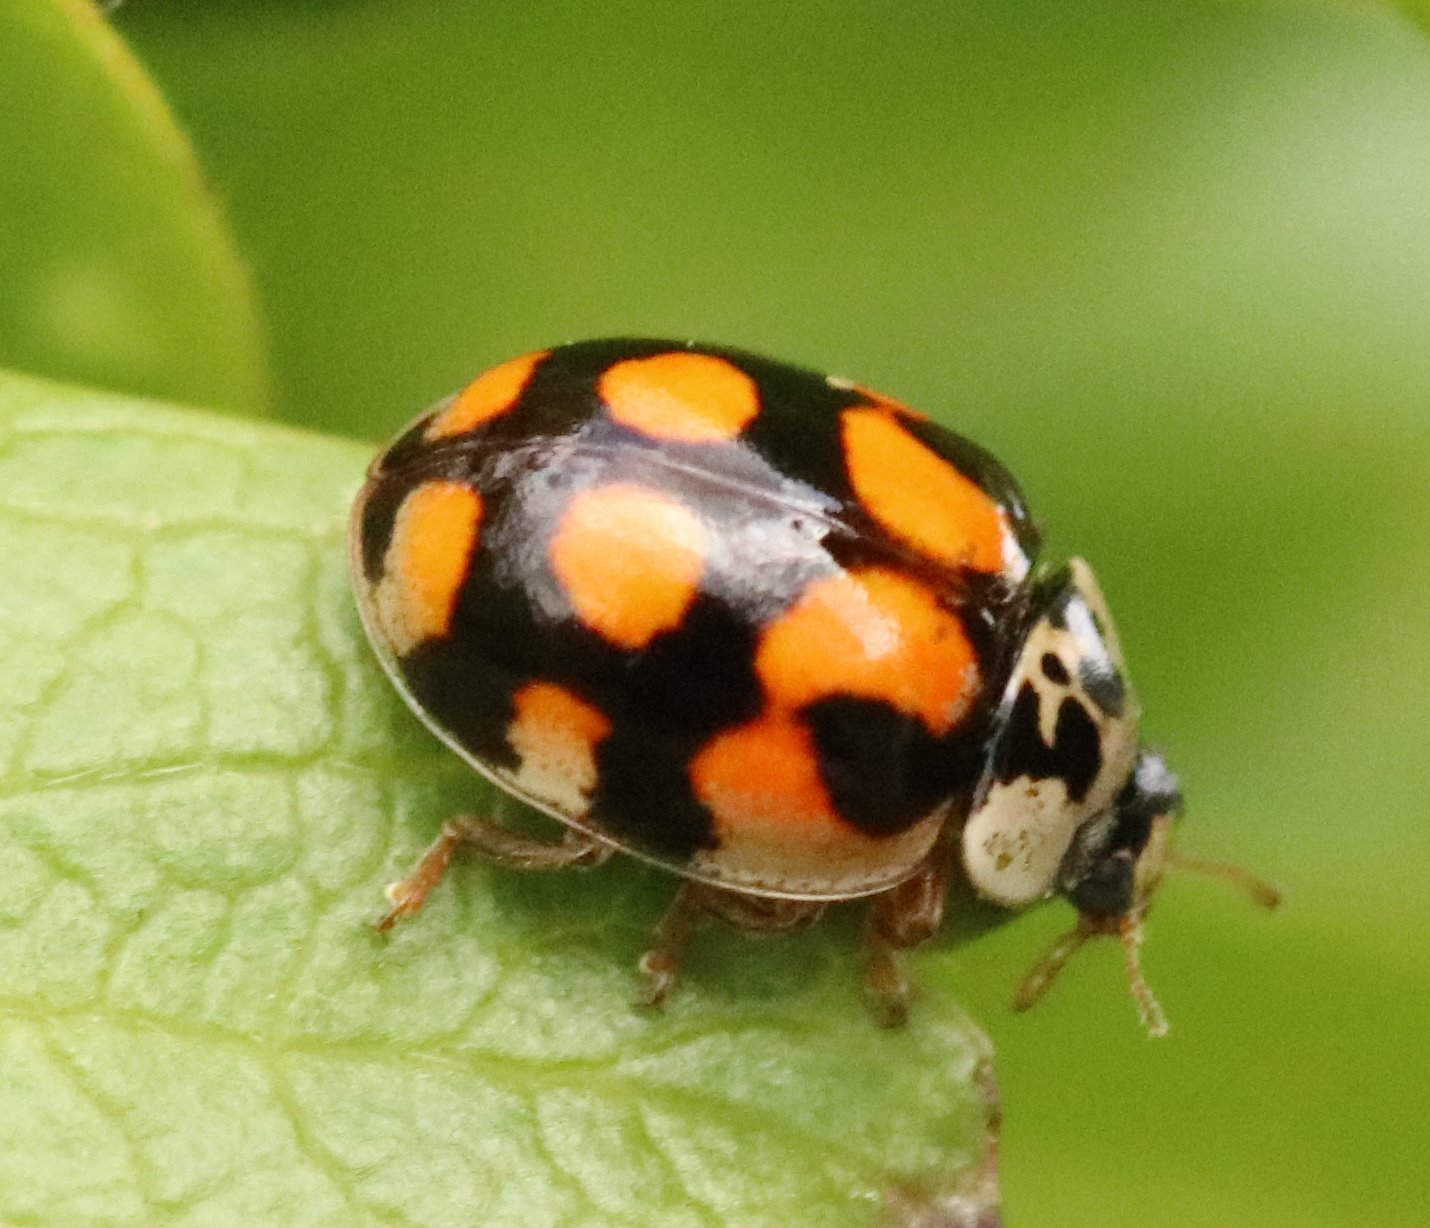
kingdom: Animalia
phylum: Arthropoda
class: Insecta
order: Coleoptera
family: Coccinellidae
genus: Adalia
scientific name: Adalia decempunctata
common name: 10-spot ladybird
